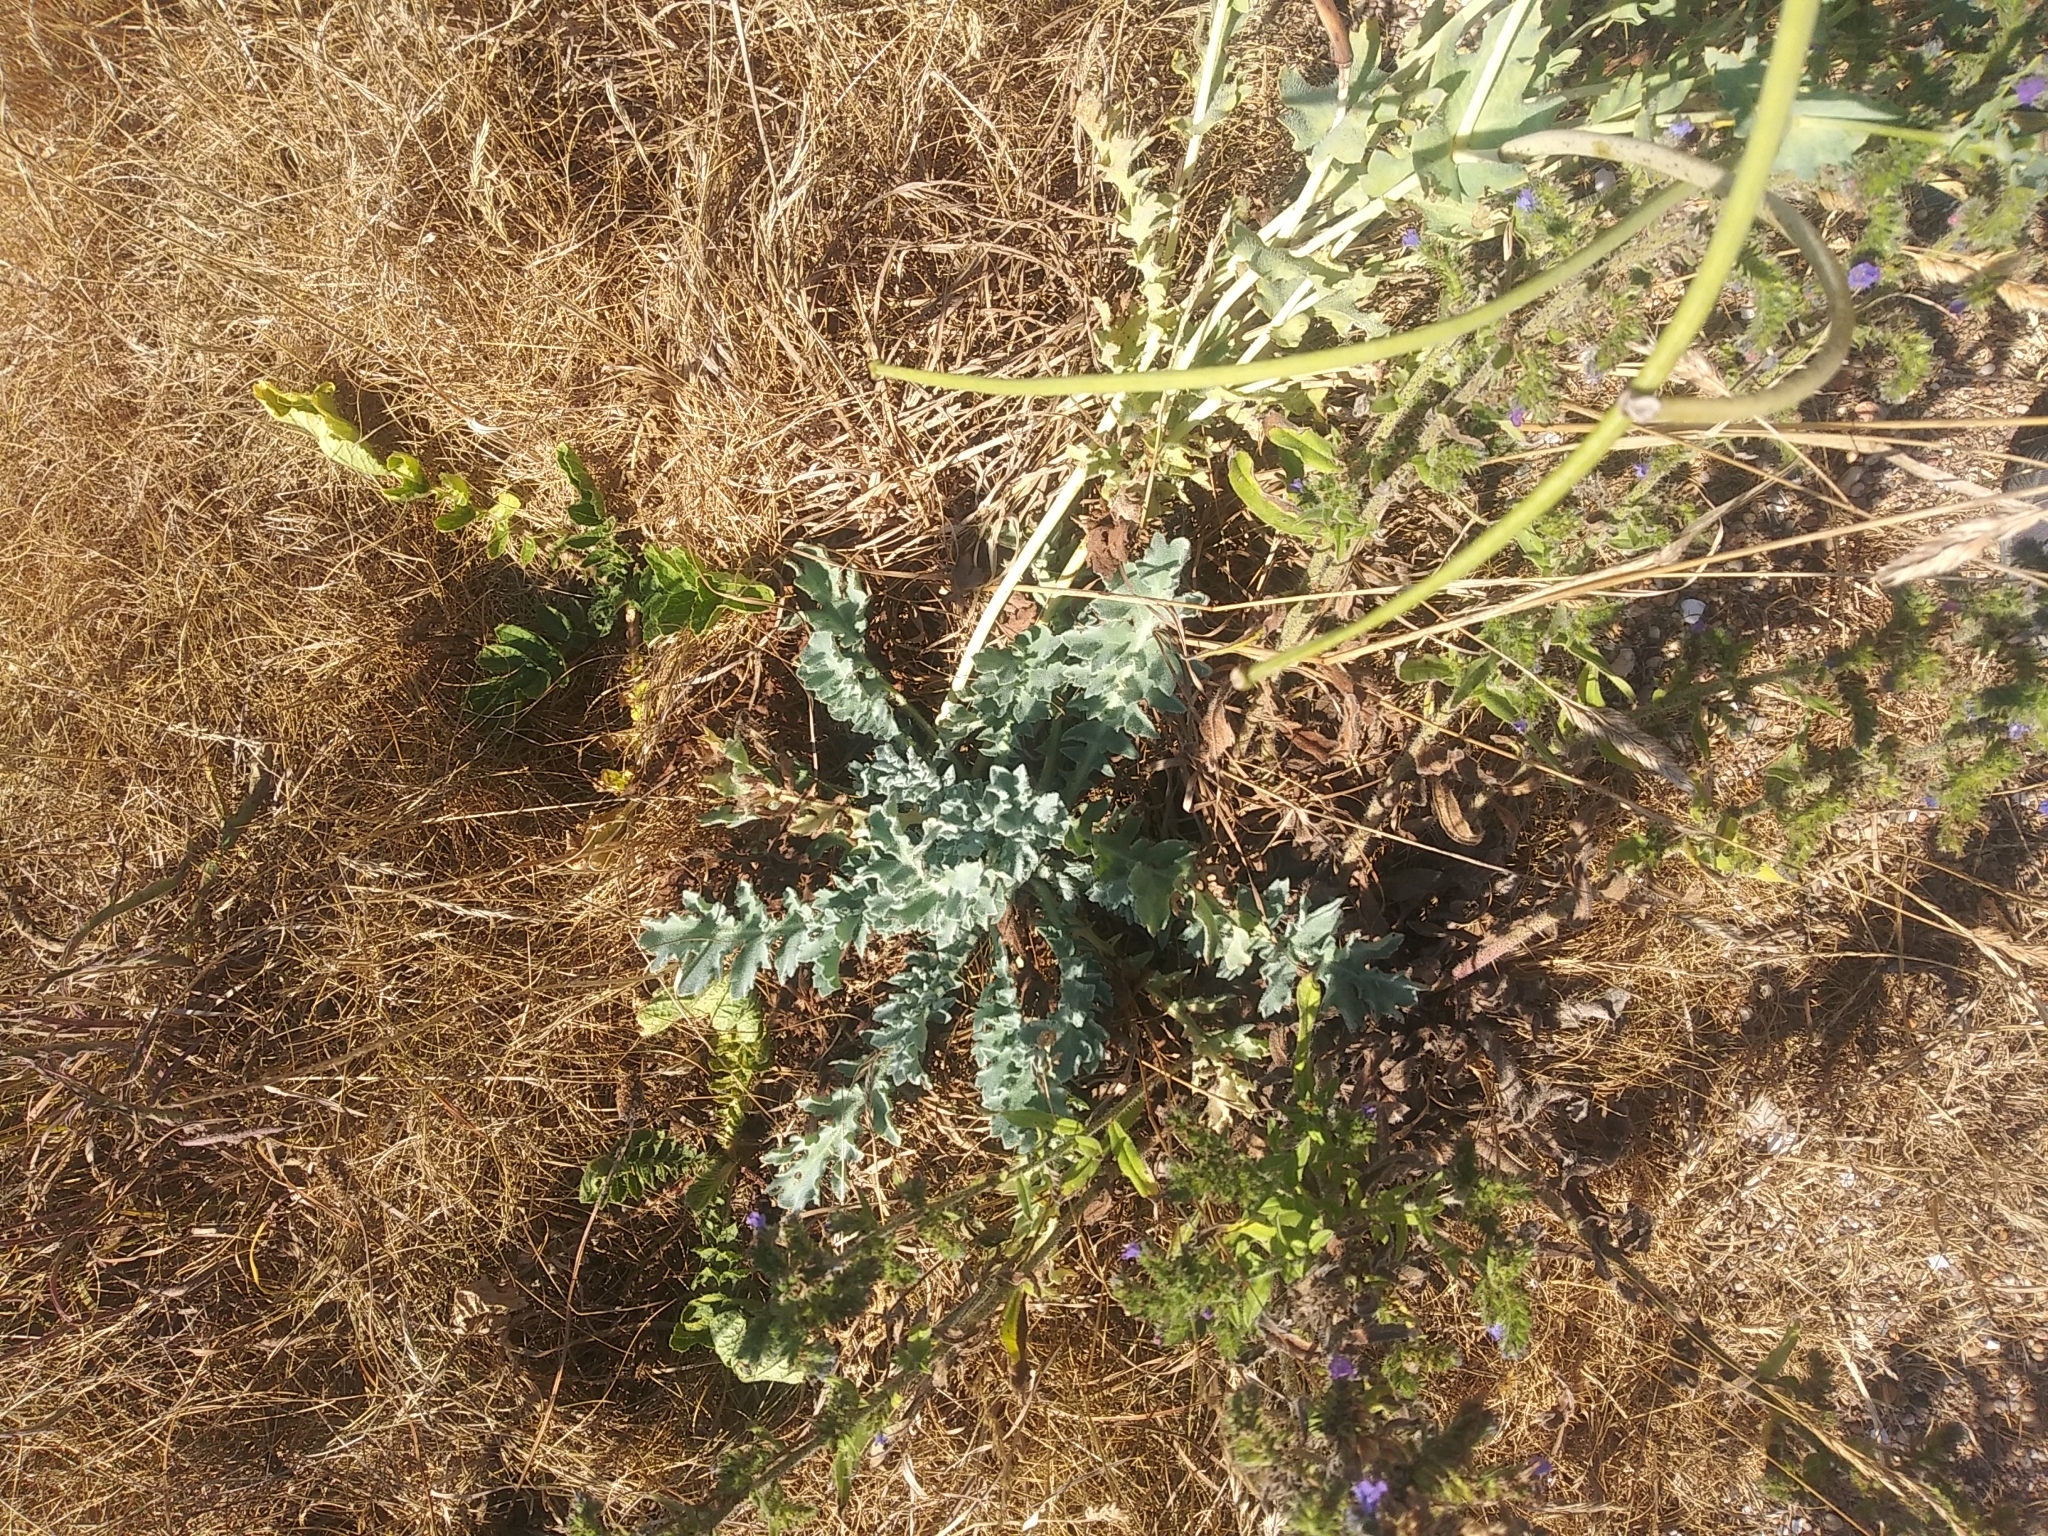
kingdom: Plantae
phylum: Tracheophyta
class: Magnoliopsida
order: Ranunculales
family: Papaveraceae
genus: Glaucium
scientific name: Glaucium flavum
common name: Yellow horned-poppy
